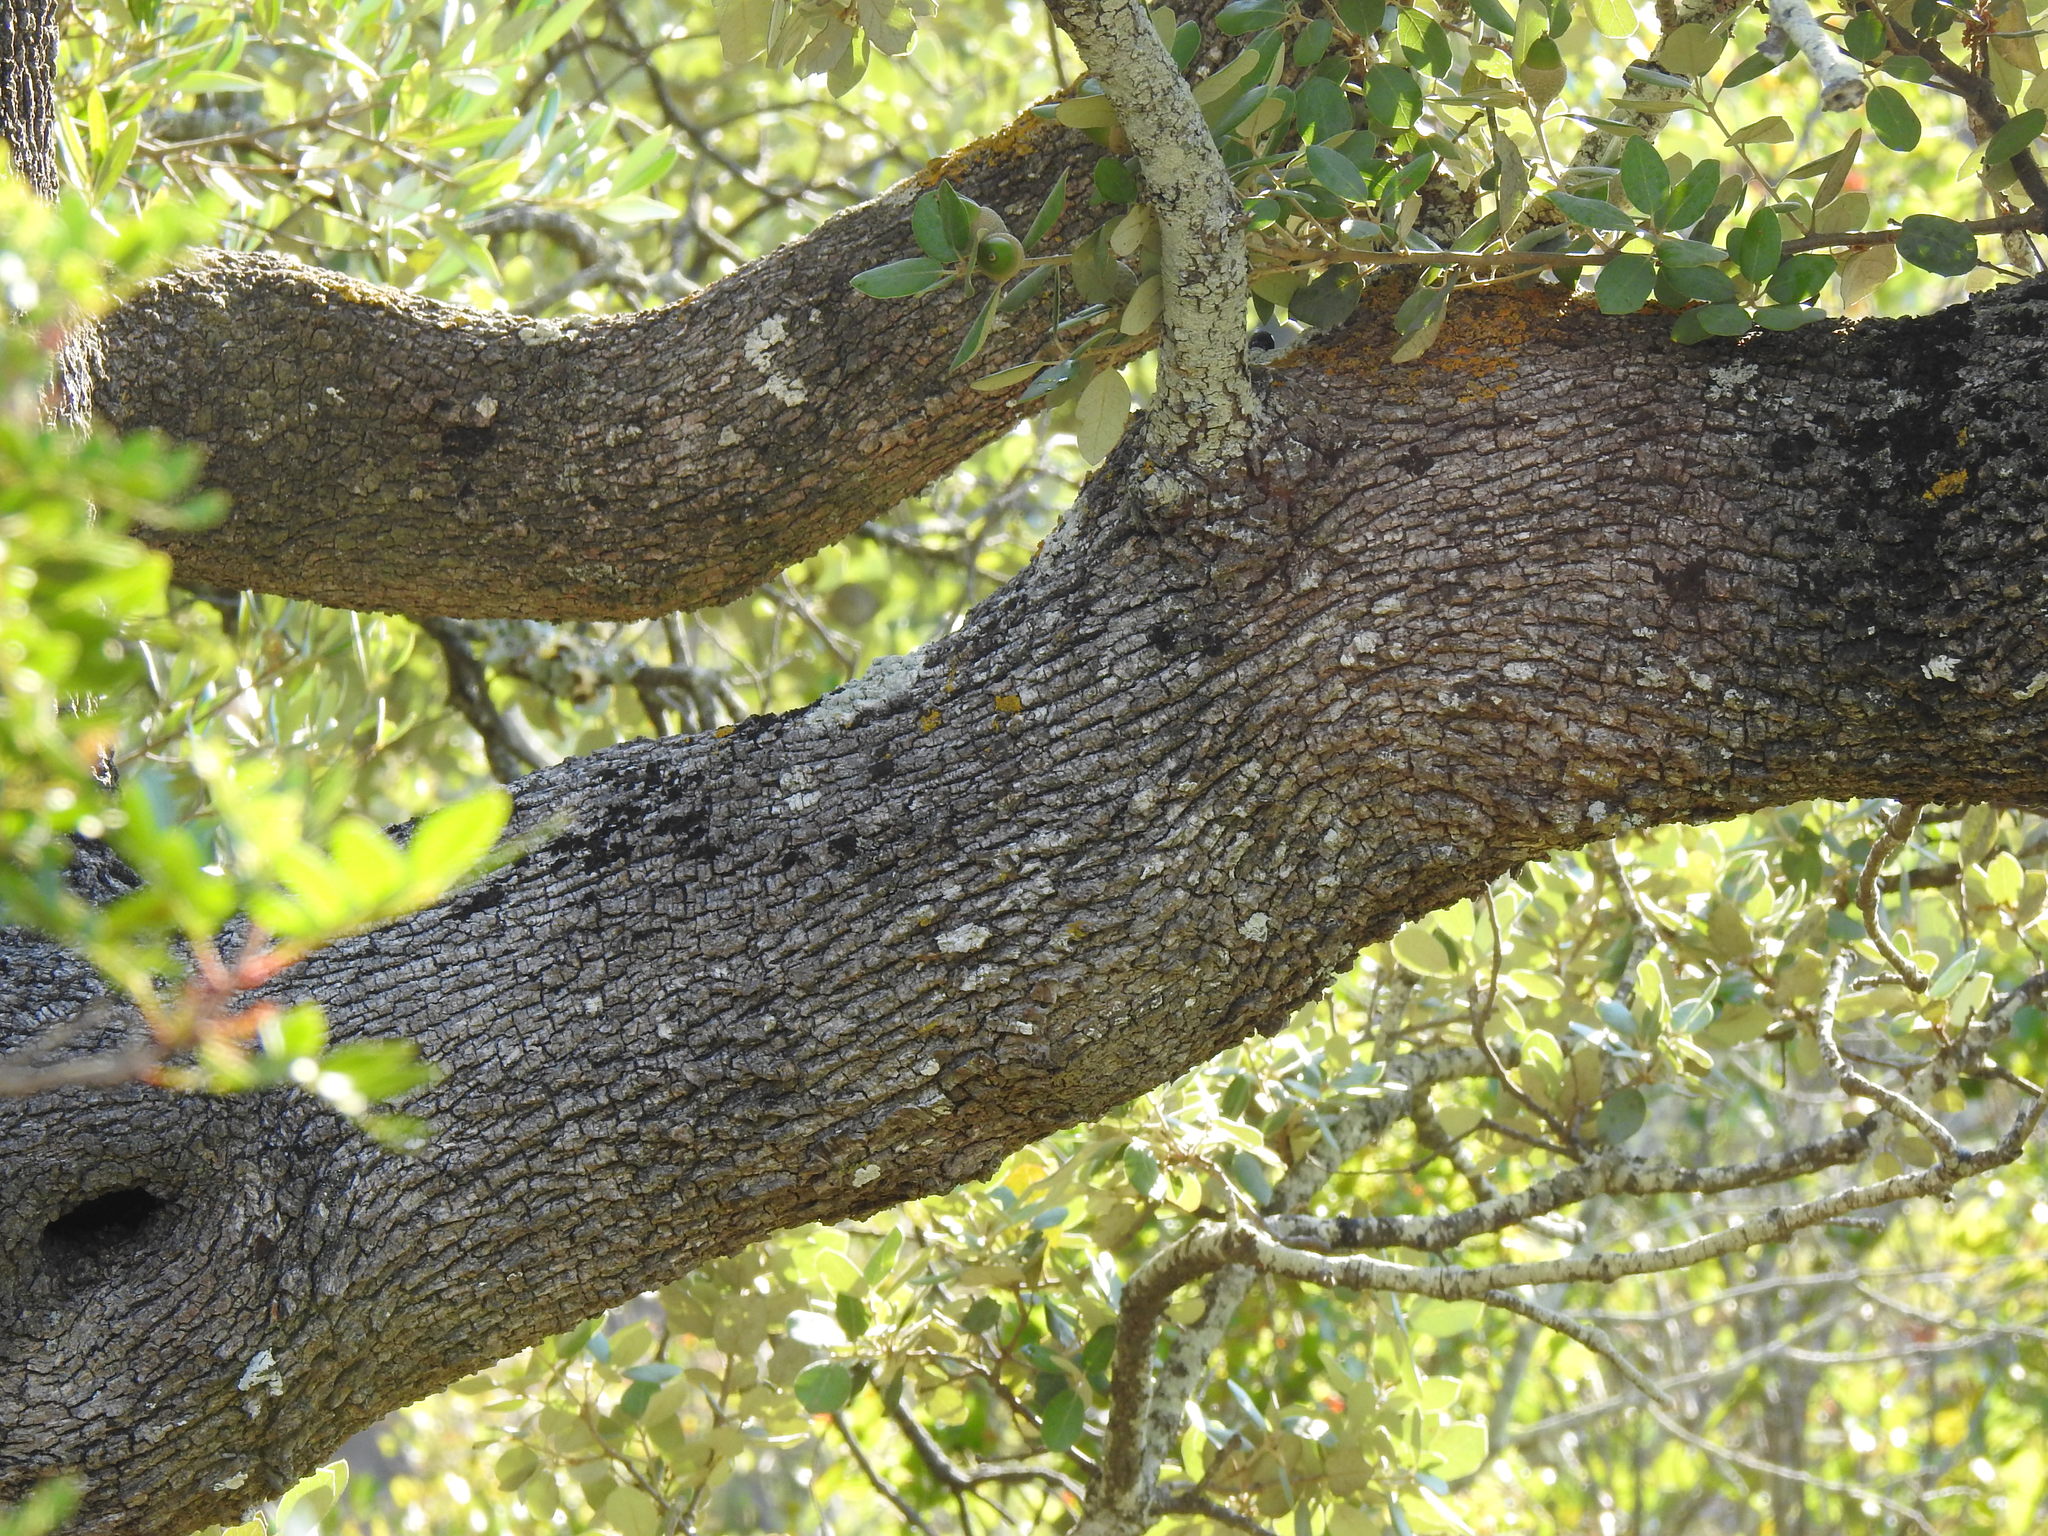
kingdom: Plantae
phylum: Tracheophyta
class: Magnoliopsida
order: Fagales
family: Fagaceae
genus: Quercus
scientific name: Quercus rotundifolia
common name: Holm oak
